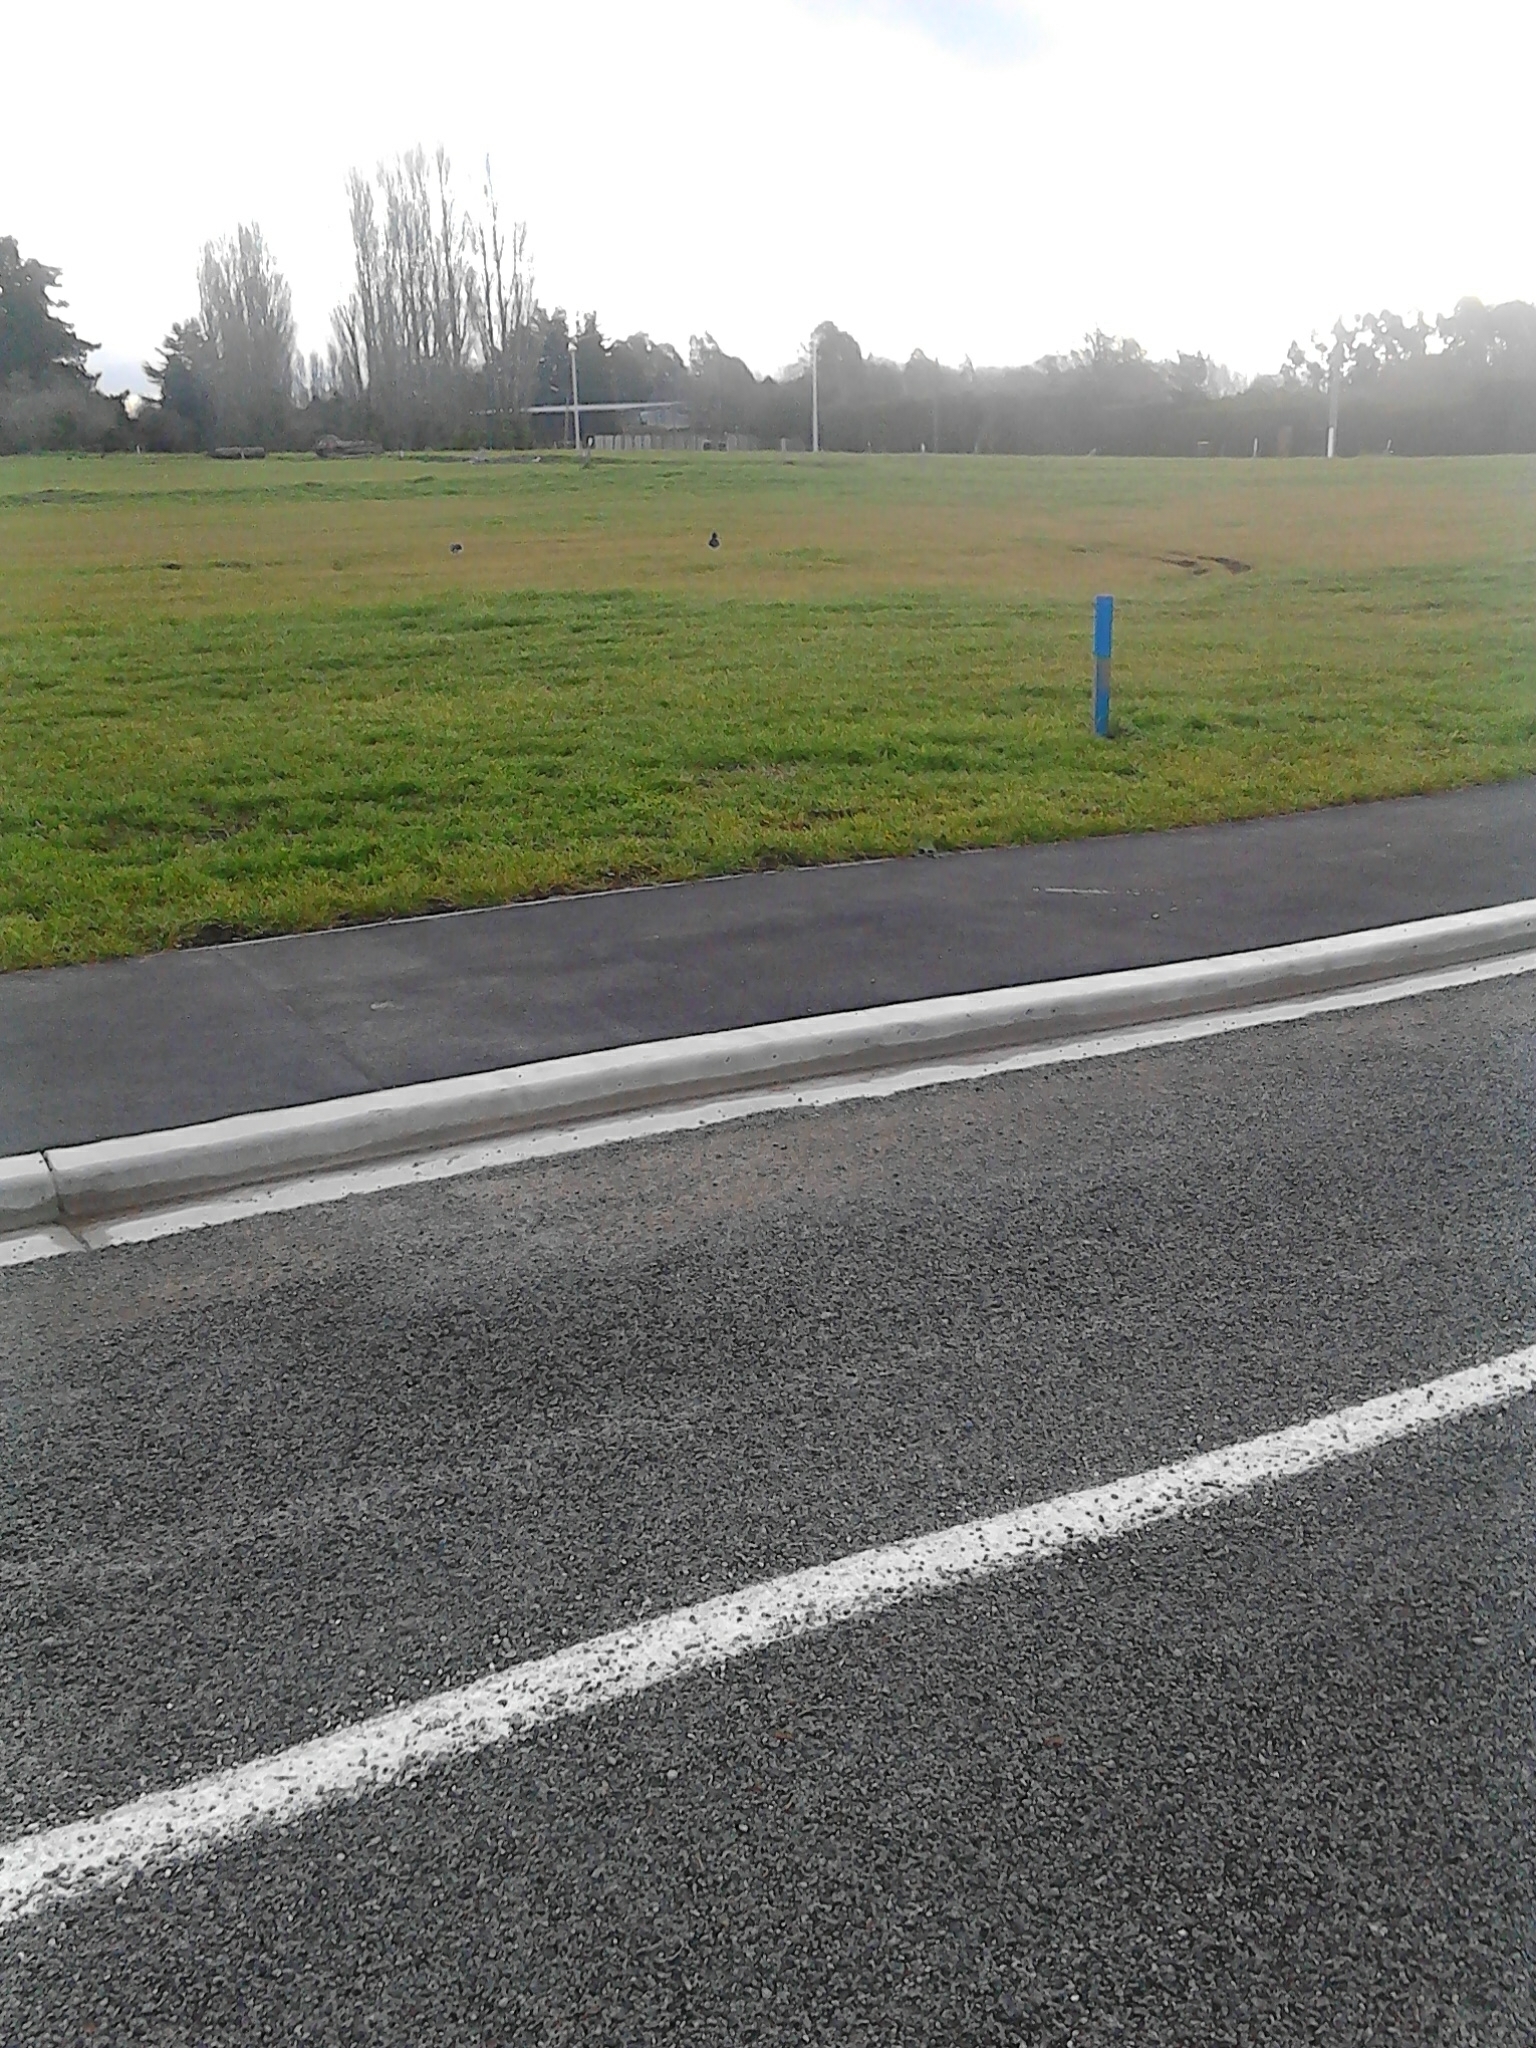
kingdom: Animalia
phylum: Chordata
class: Aves
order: Charadriiformes
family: Haematopodidae
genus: Haematopus
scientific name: Haematopus finschi
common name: South island oystercatcher
